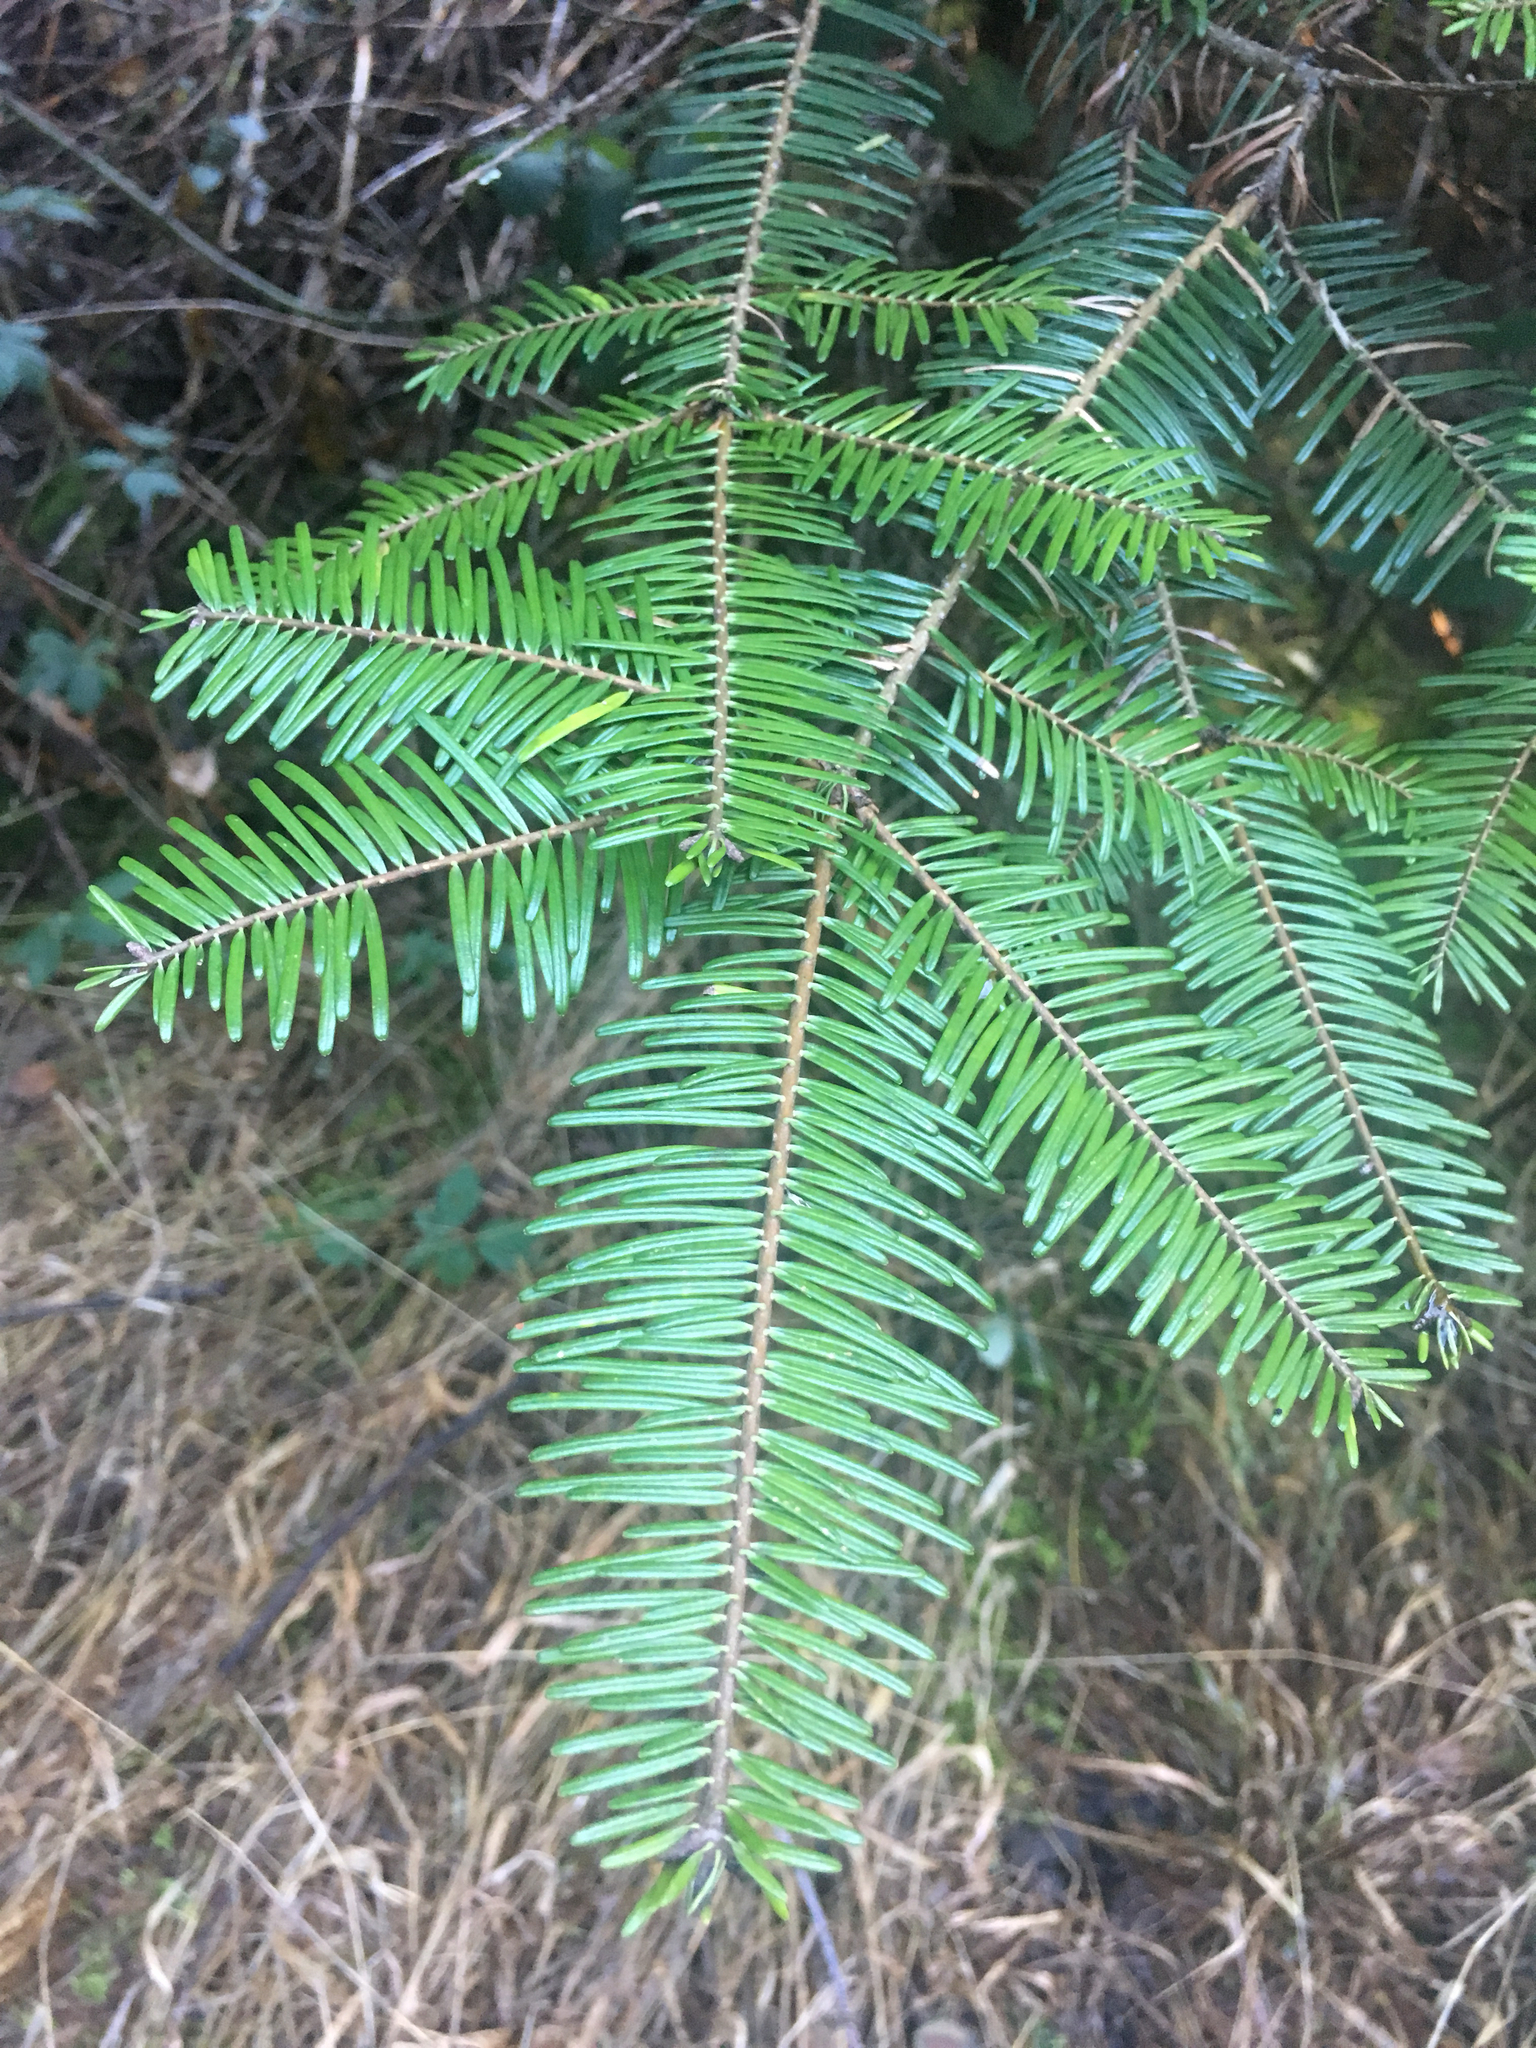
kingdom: Plantae
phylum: Tracheophyta
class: Pinopsida
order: Pinales
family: Pinaceae
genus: Abies
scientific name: Abies grandis
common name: Giant fir
